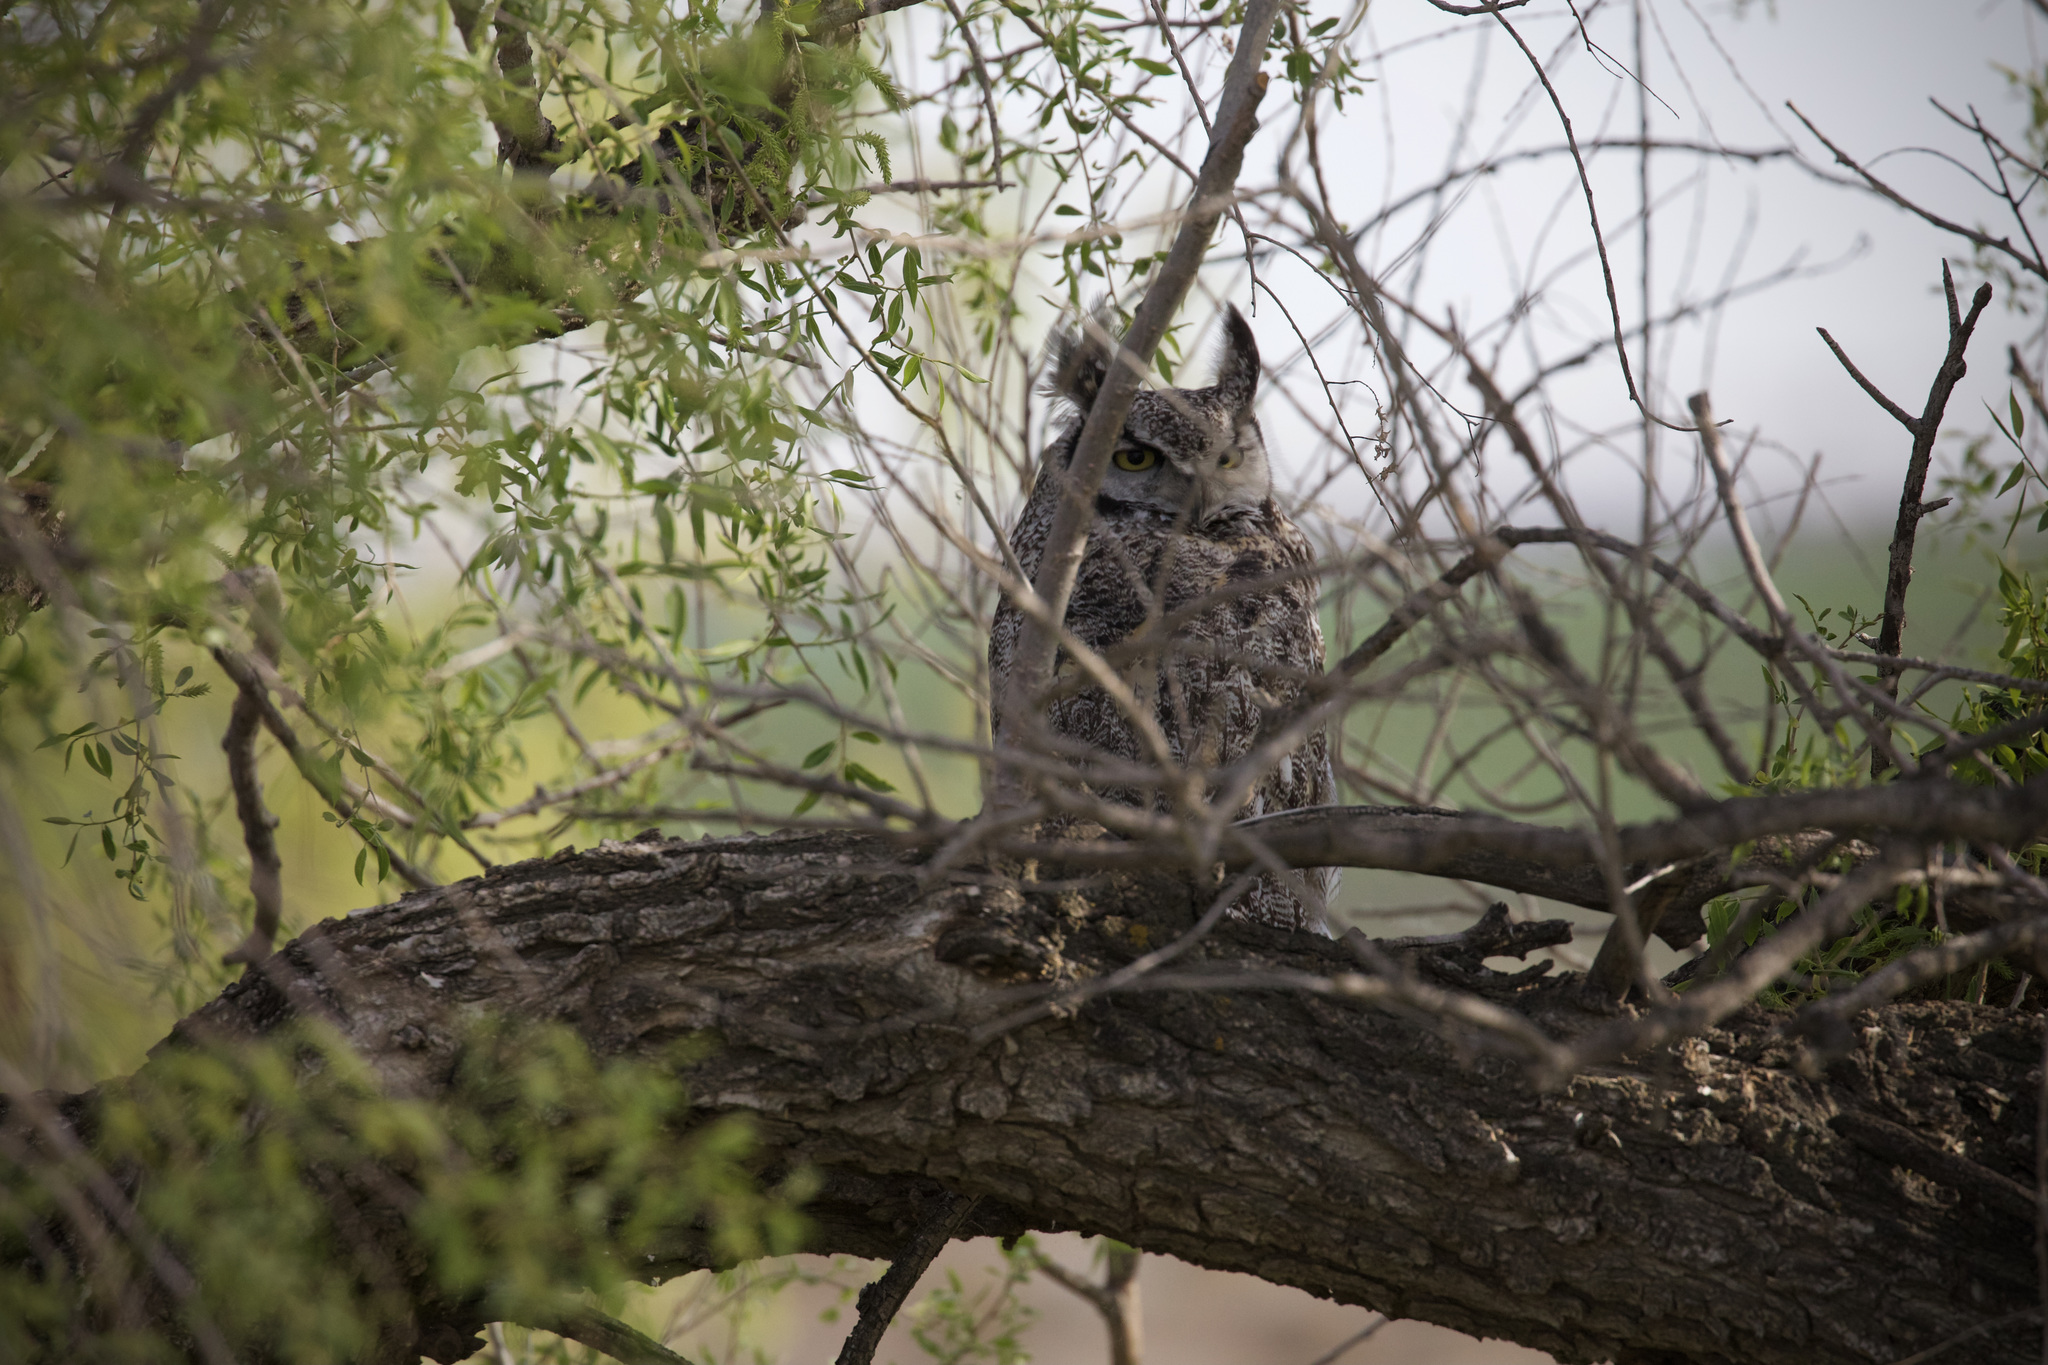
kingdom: Animalia
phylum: Chordata
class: Aves
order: Strigiformes
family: Strigidae
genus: Bubo
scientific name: Bubo virginianus
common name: Great horned owl
